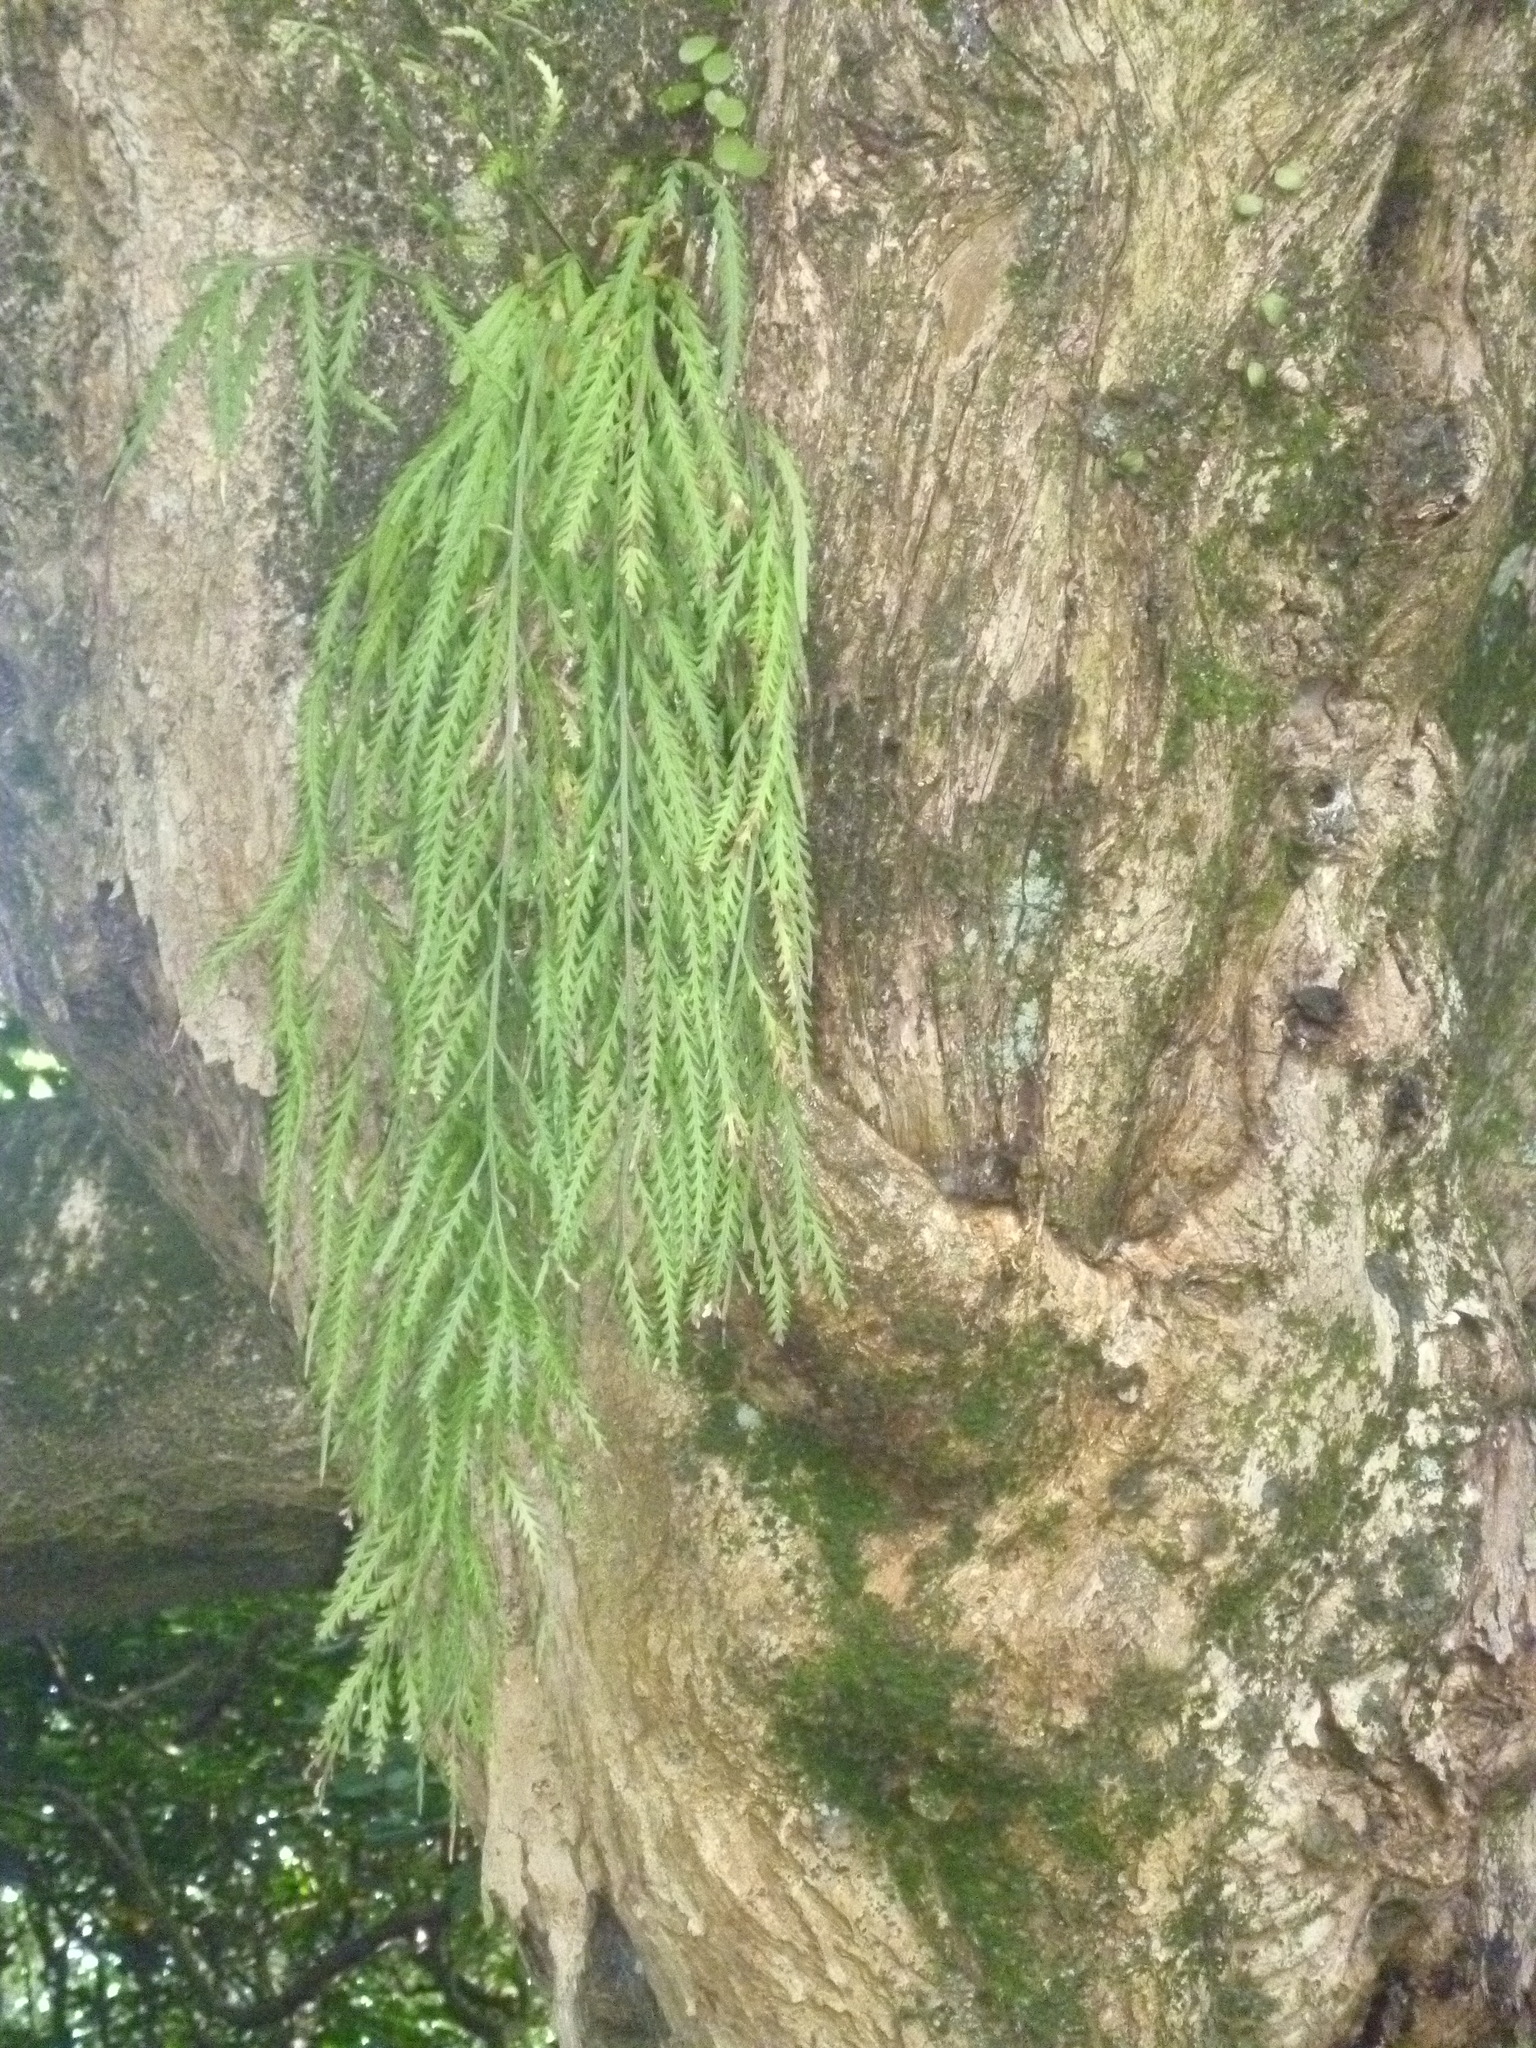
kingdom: Plantae
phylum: Tracheophyta
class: Polypodiopsida
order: Polypodiales
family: Aspleniaceae
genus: Asplenium
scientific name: Asplenium flaccidum
